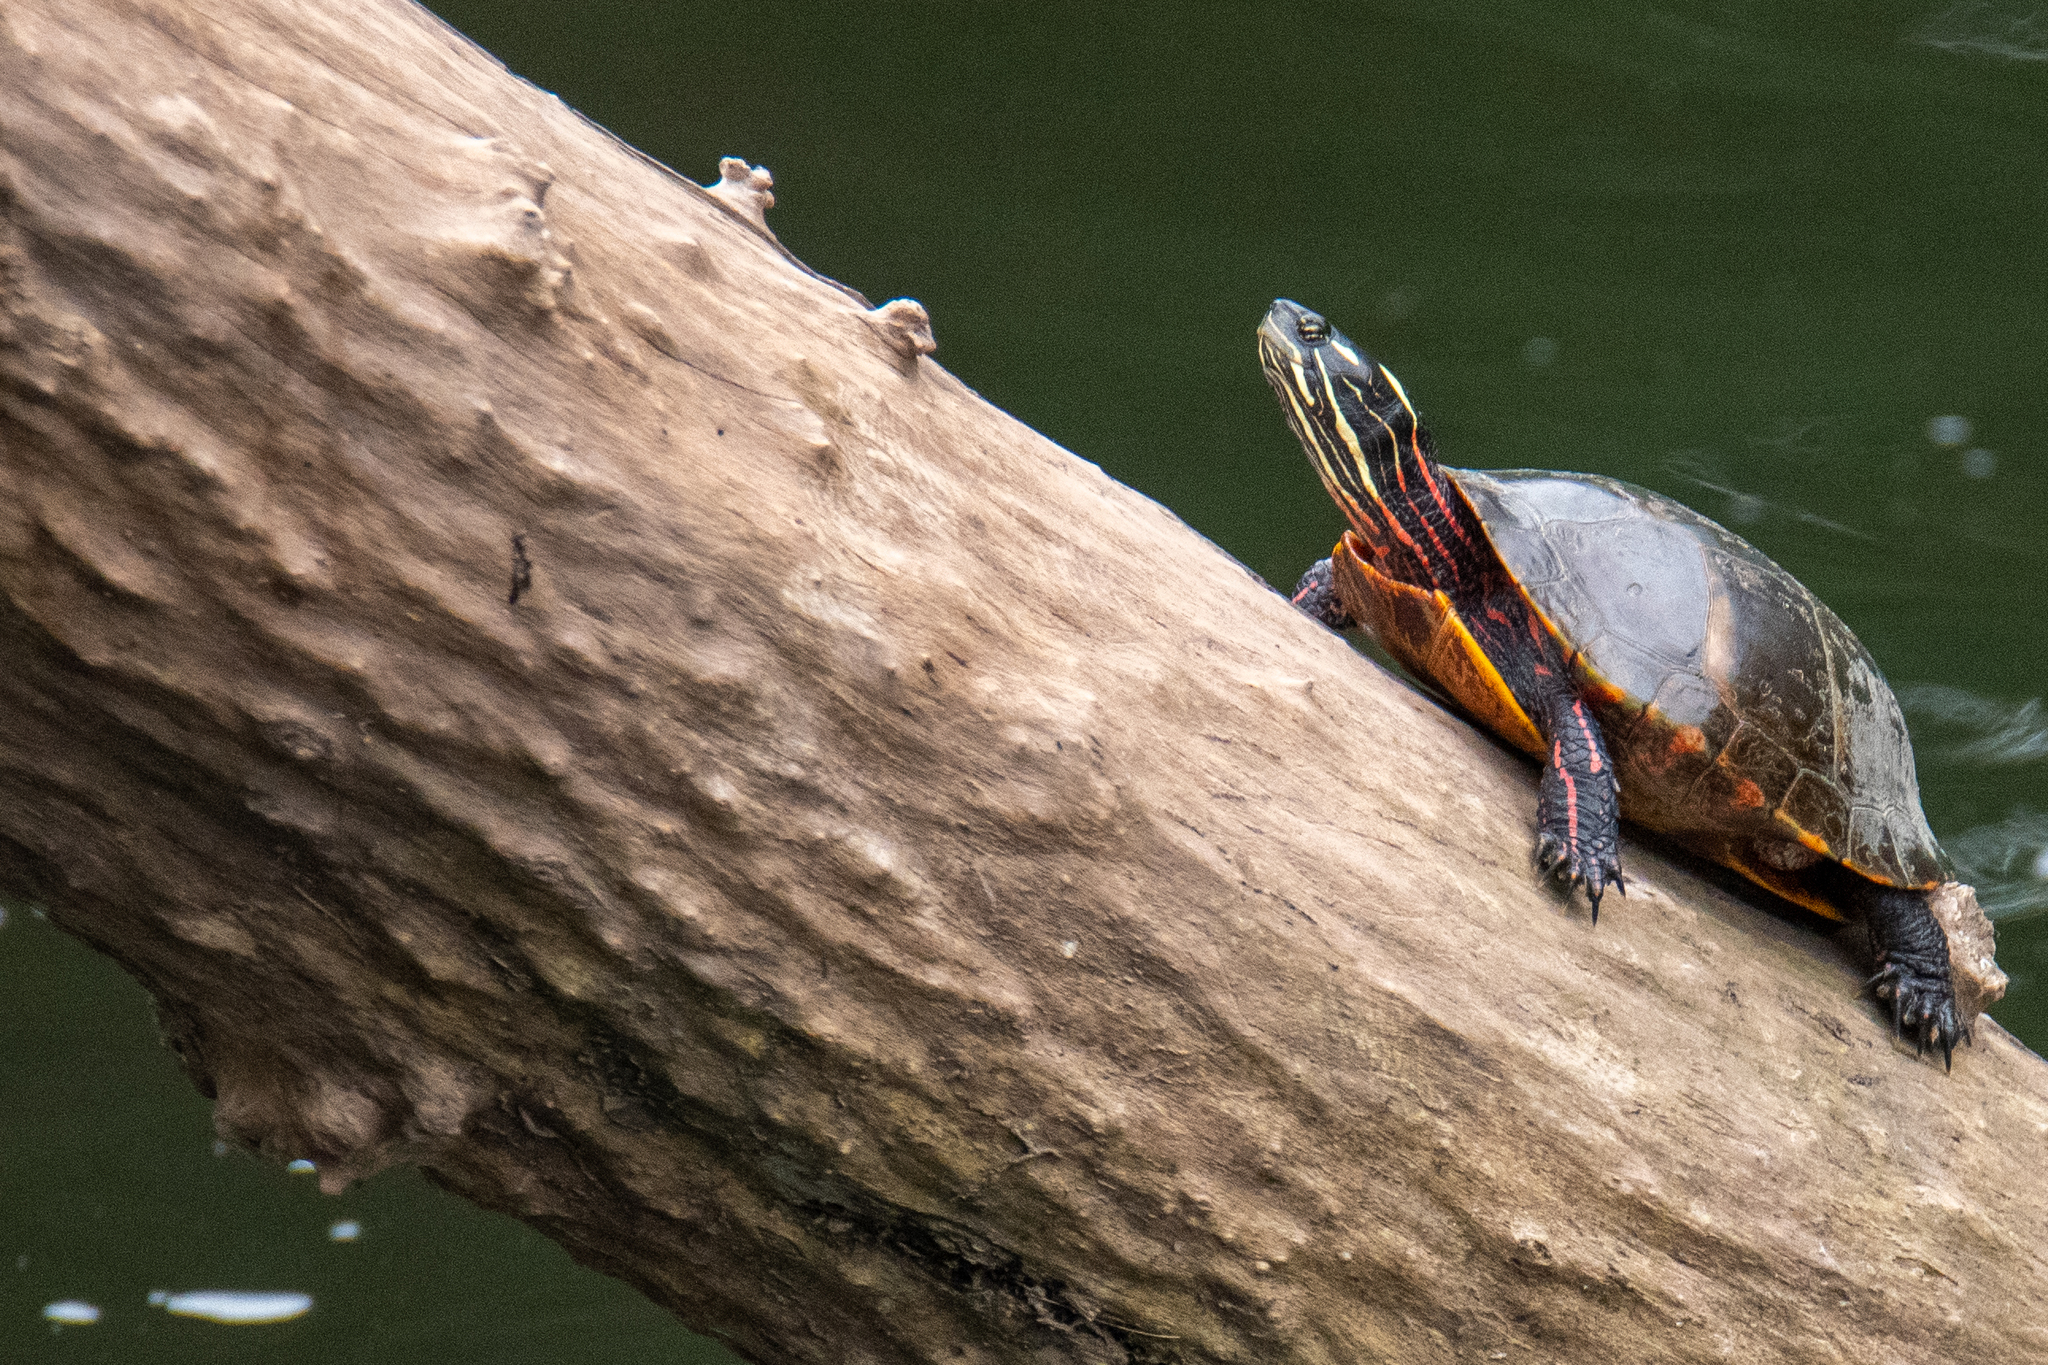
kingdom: Animalia
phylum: Chordata
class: Testudines
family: Emydidae
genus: Chrysemys
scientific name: Chrysemys picta
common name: Painted turtle
